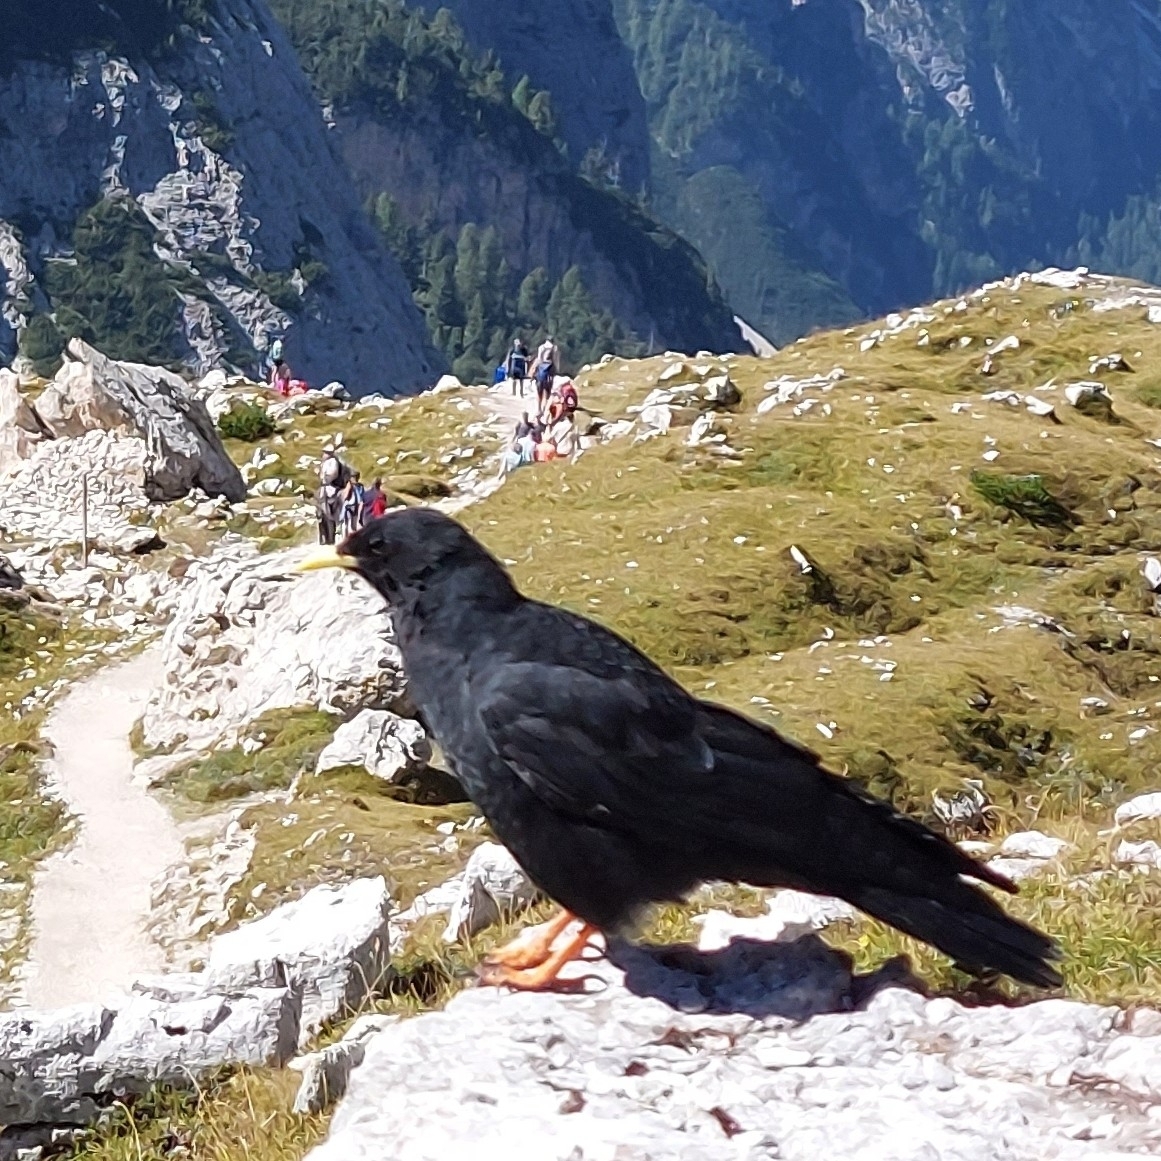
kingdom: Animalia
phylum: Chordata
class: Aves
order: Passeriformes
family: Corvidae
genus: Pyrrhocorax
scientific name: Pyrrhocorax graculus
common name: Alpine chough
